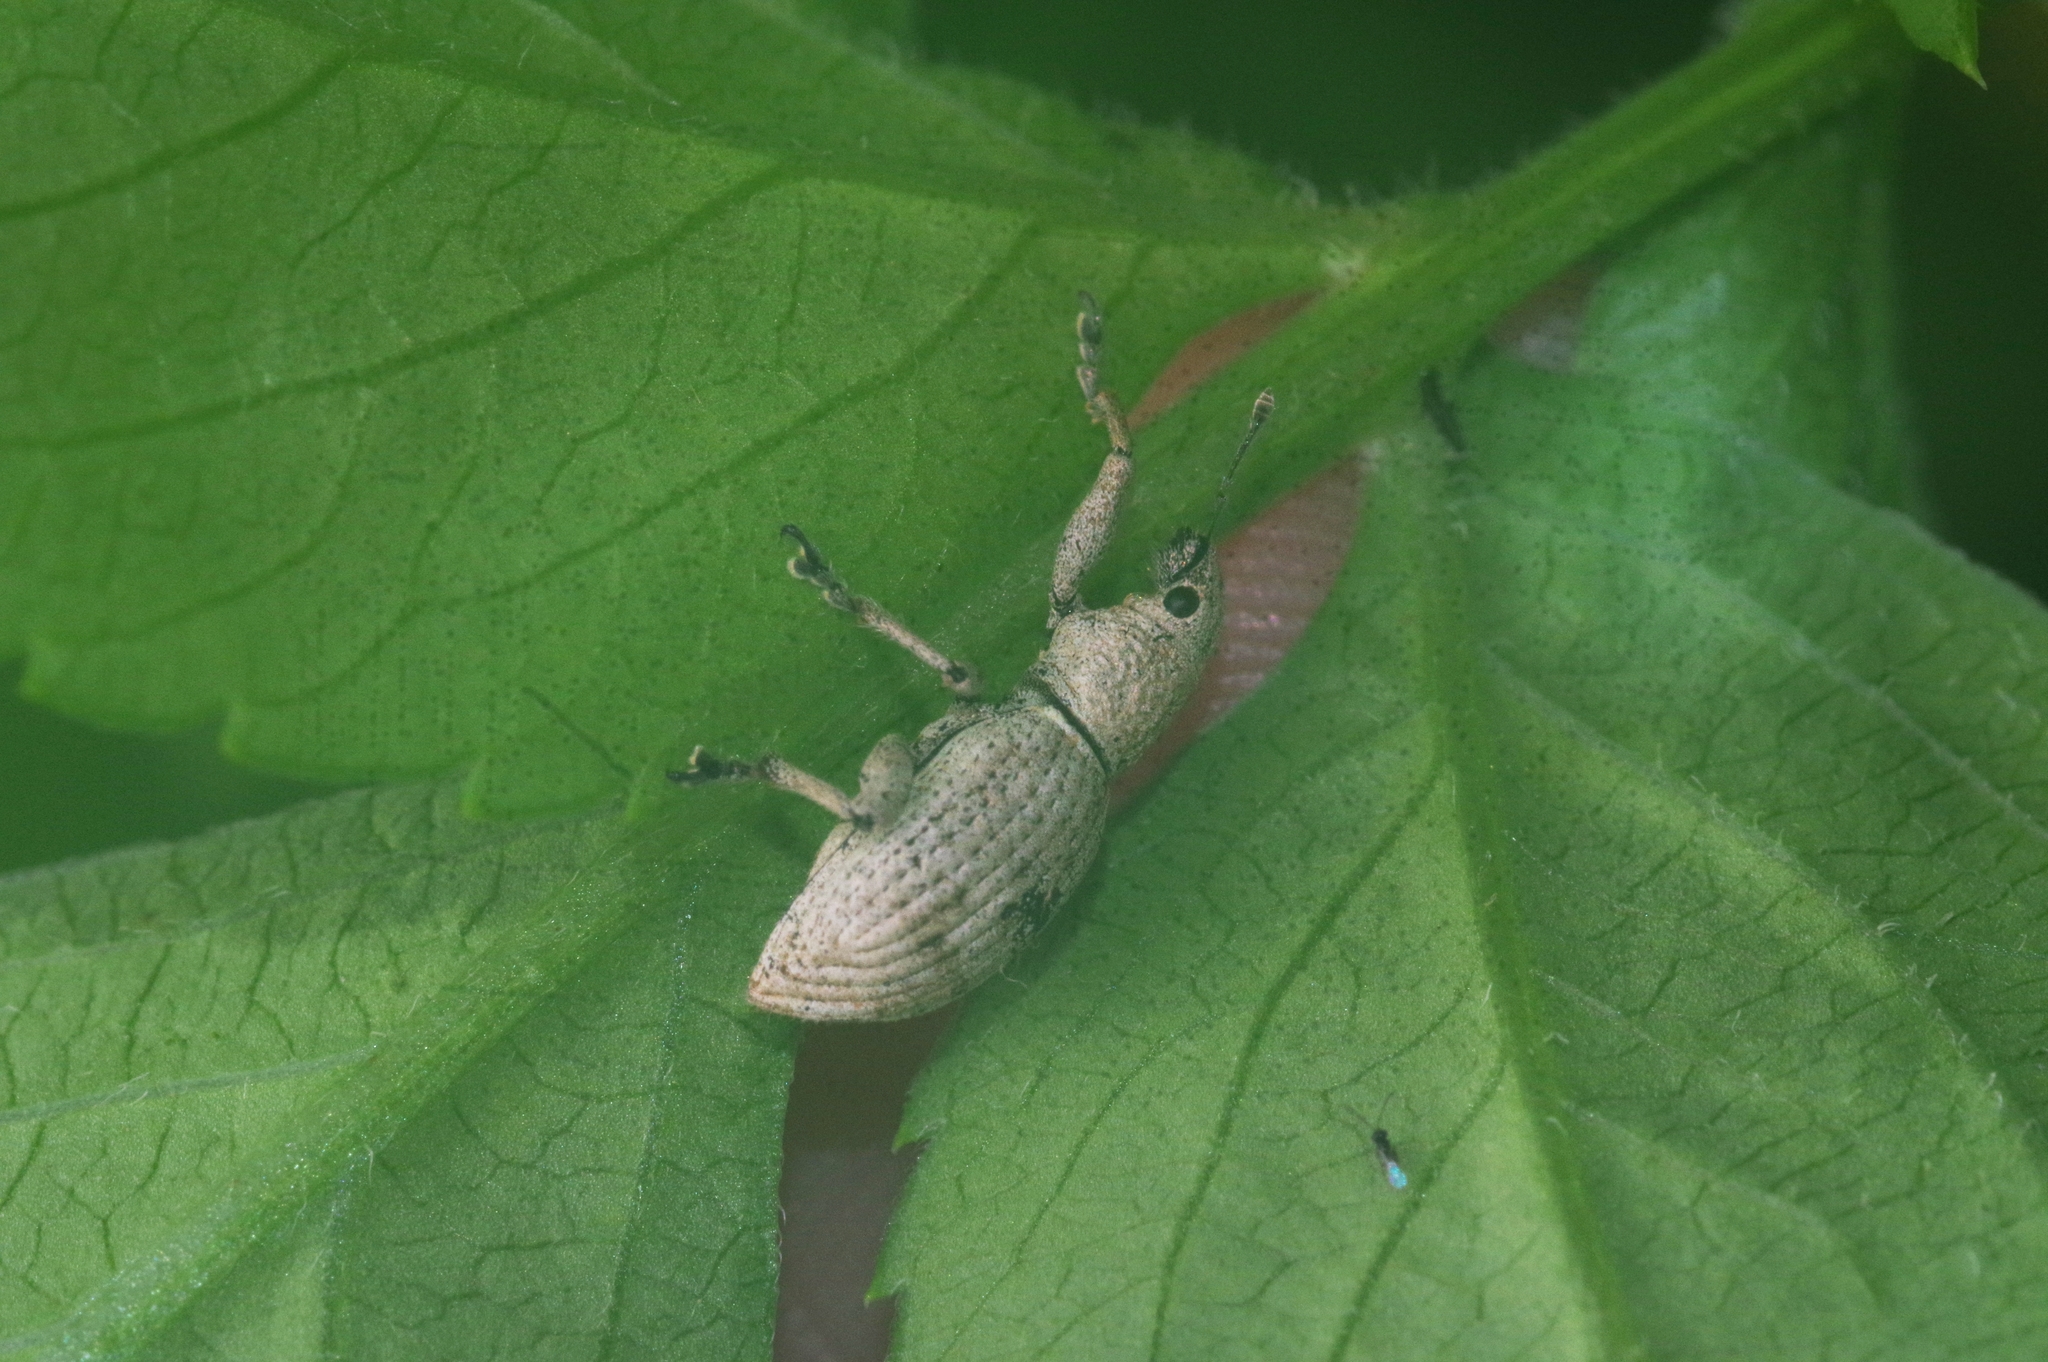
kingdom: Animalia
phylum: Arthropoda
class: Insecta
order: Coleoptera
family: Curculionidae
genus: Sympiezomias
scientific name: Sympiezomias cribricollis
